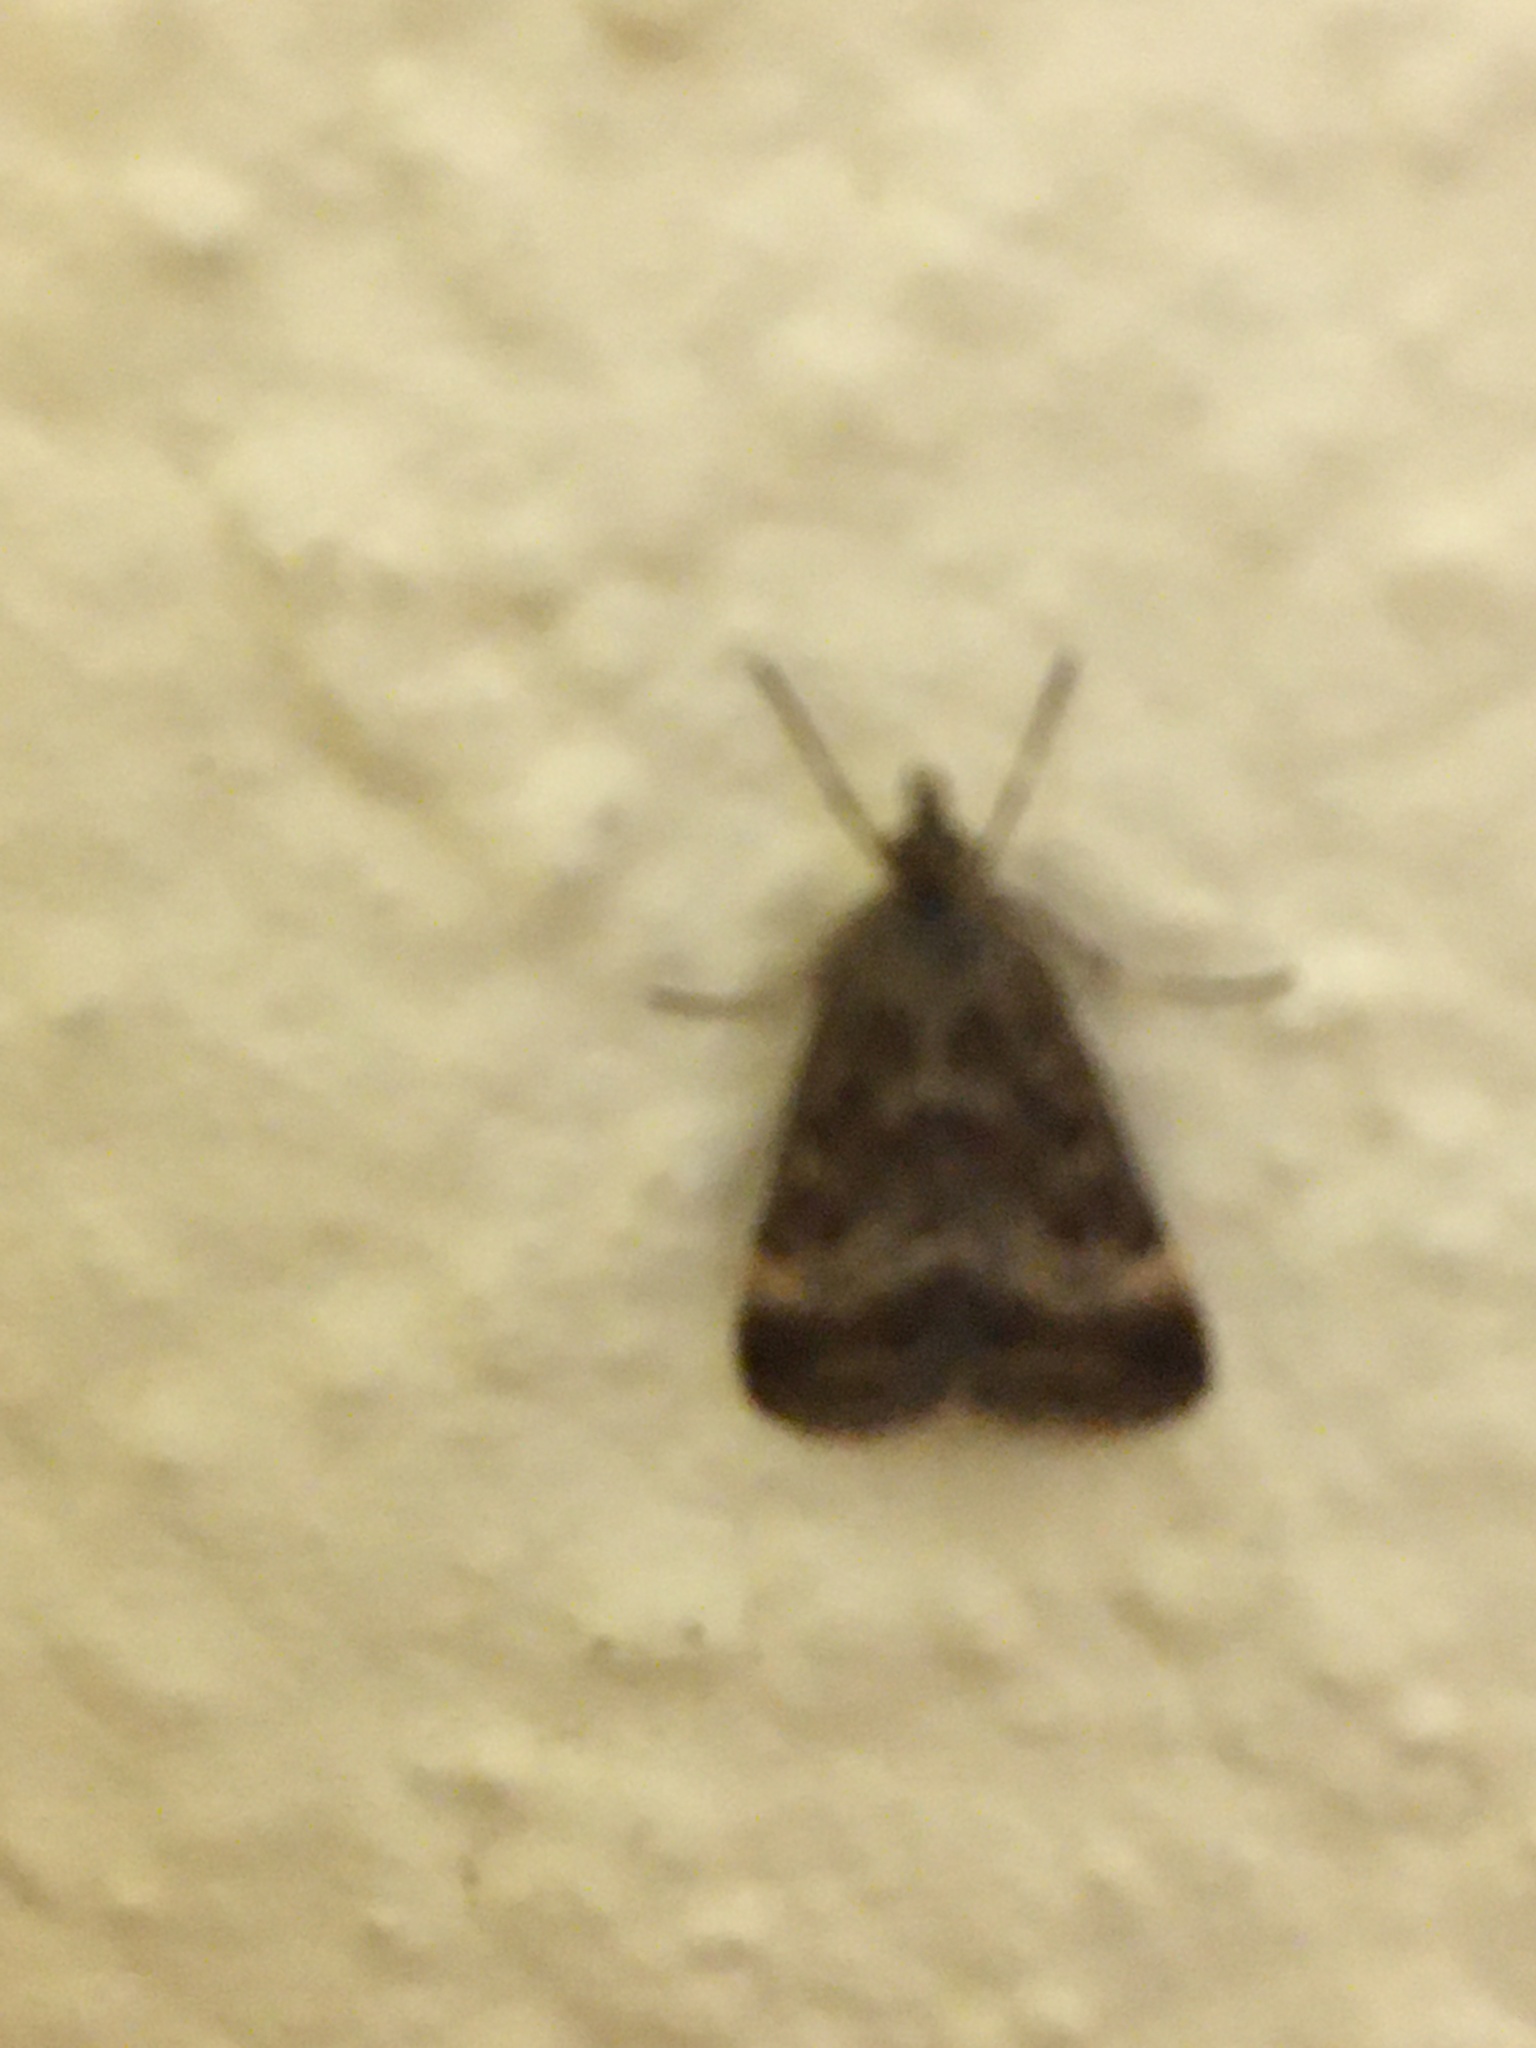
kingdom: Animalia
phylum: Arthropoda
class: Insecta
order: Lepidoptera
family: Crambidae
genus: Pyrausta
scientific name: Pyrausta despicata
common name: Straw-barred pearl
